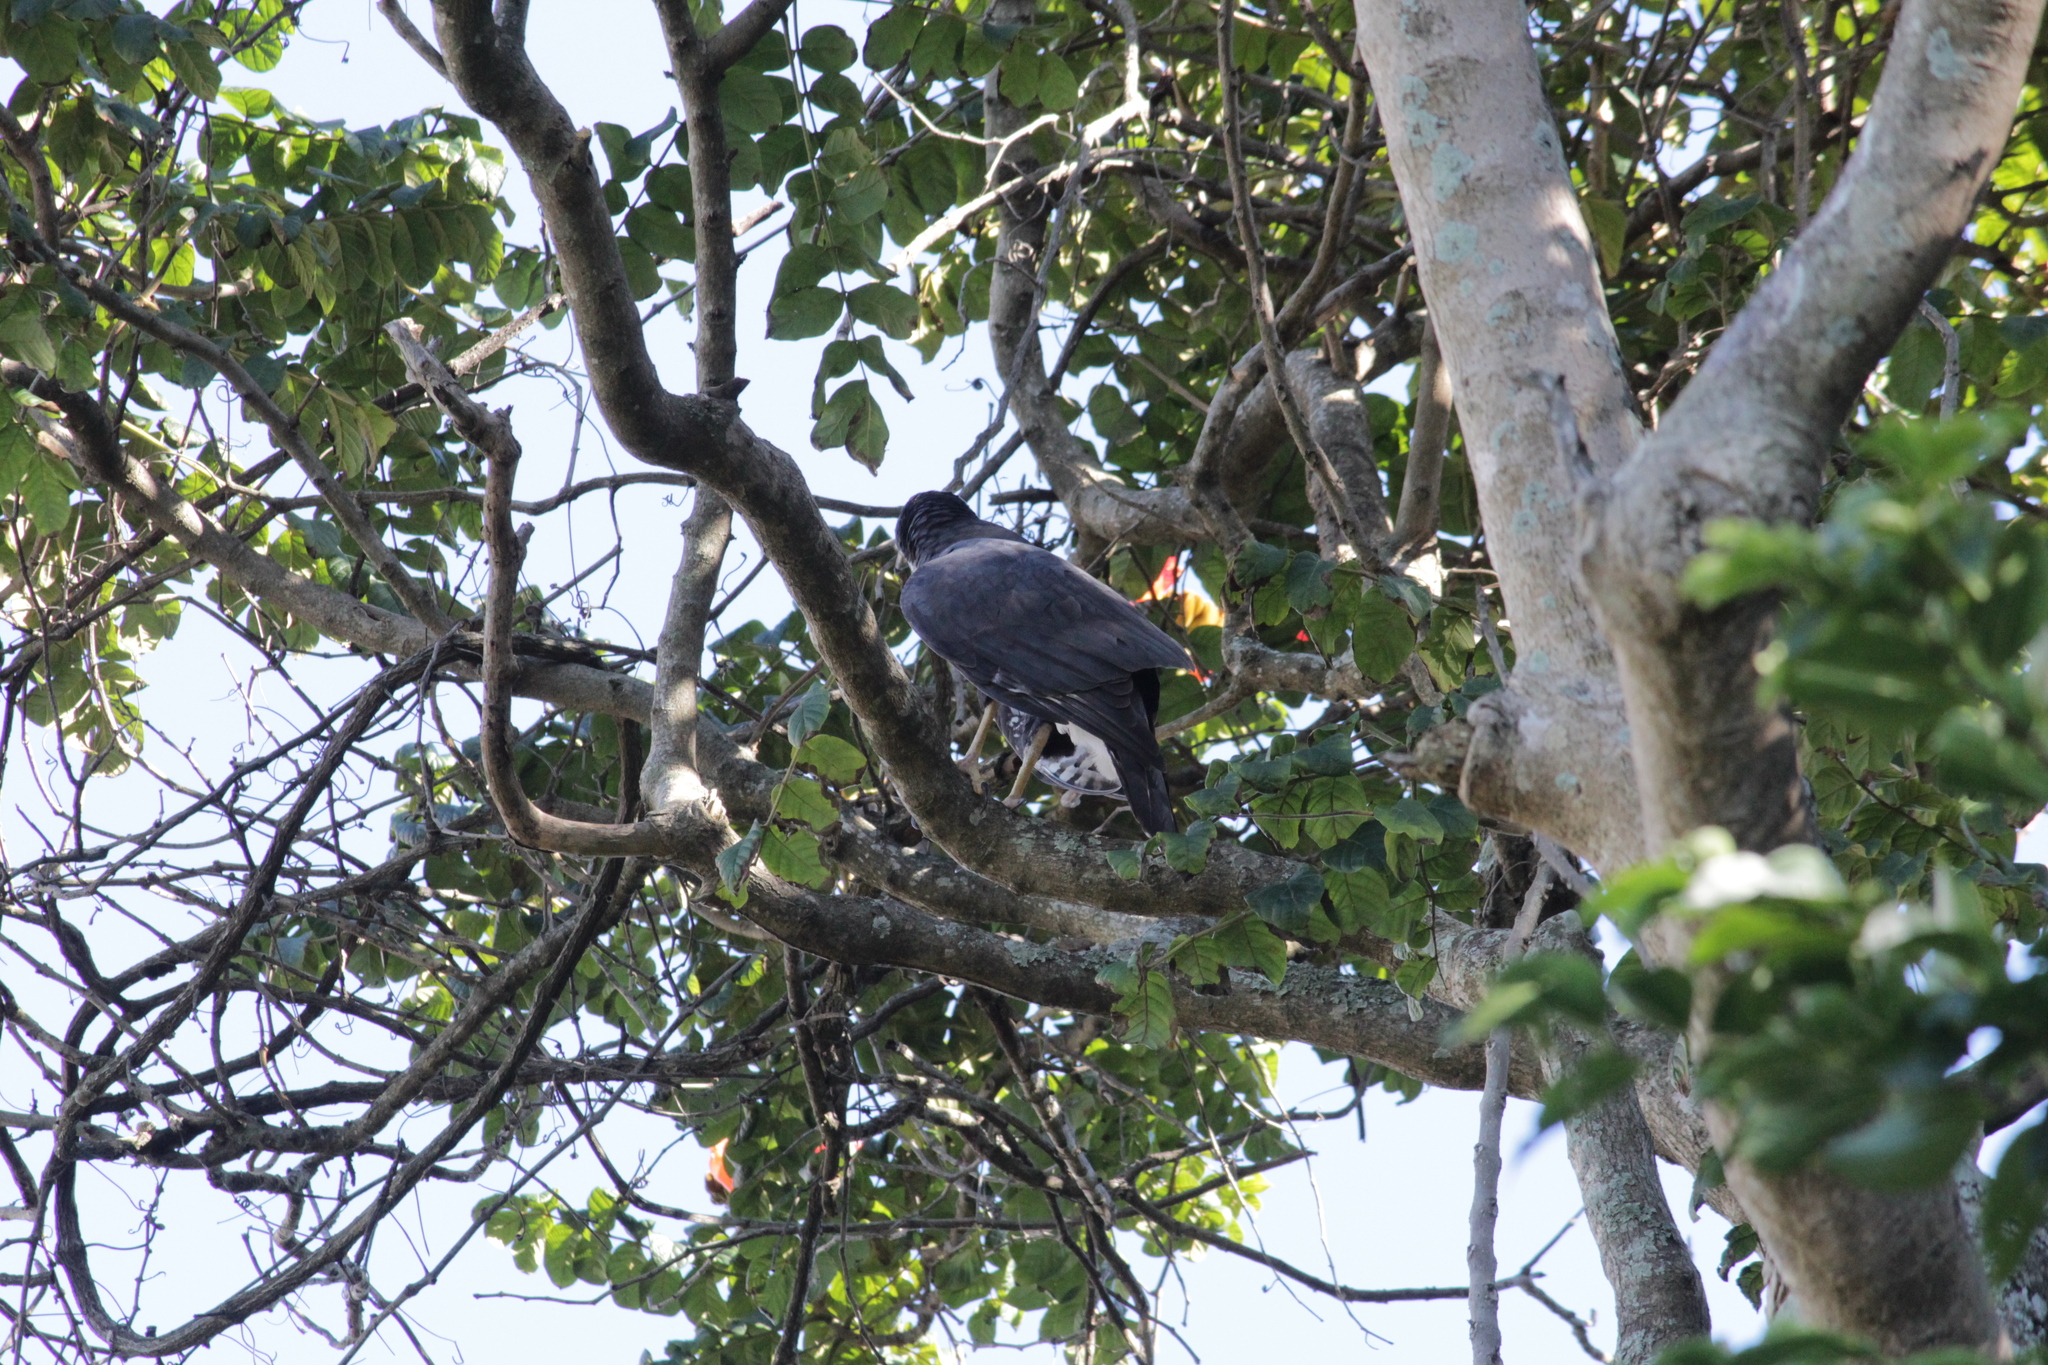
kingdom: Animalia
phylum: Chordata
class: Aves
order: Accipitriformes
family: Accipitridae
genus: Accipiter
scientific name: Accipiter melanoleucus
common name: Black sparrowhawk
